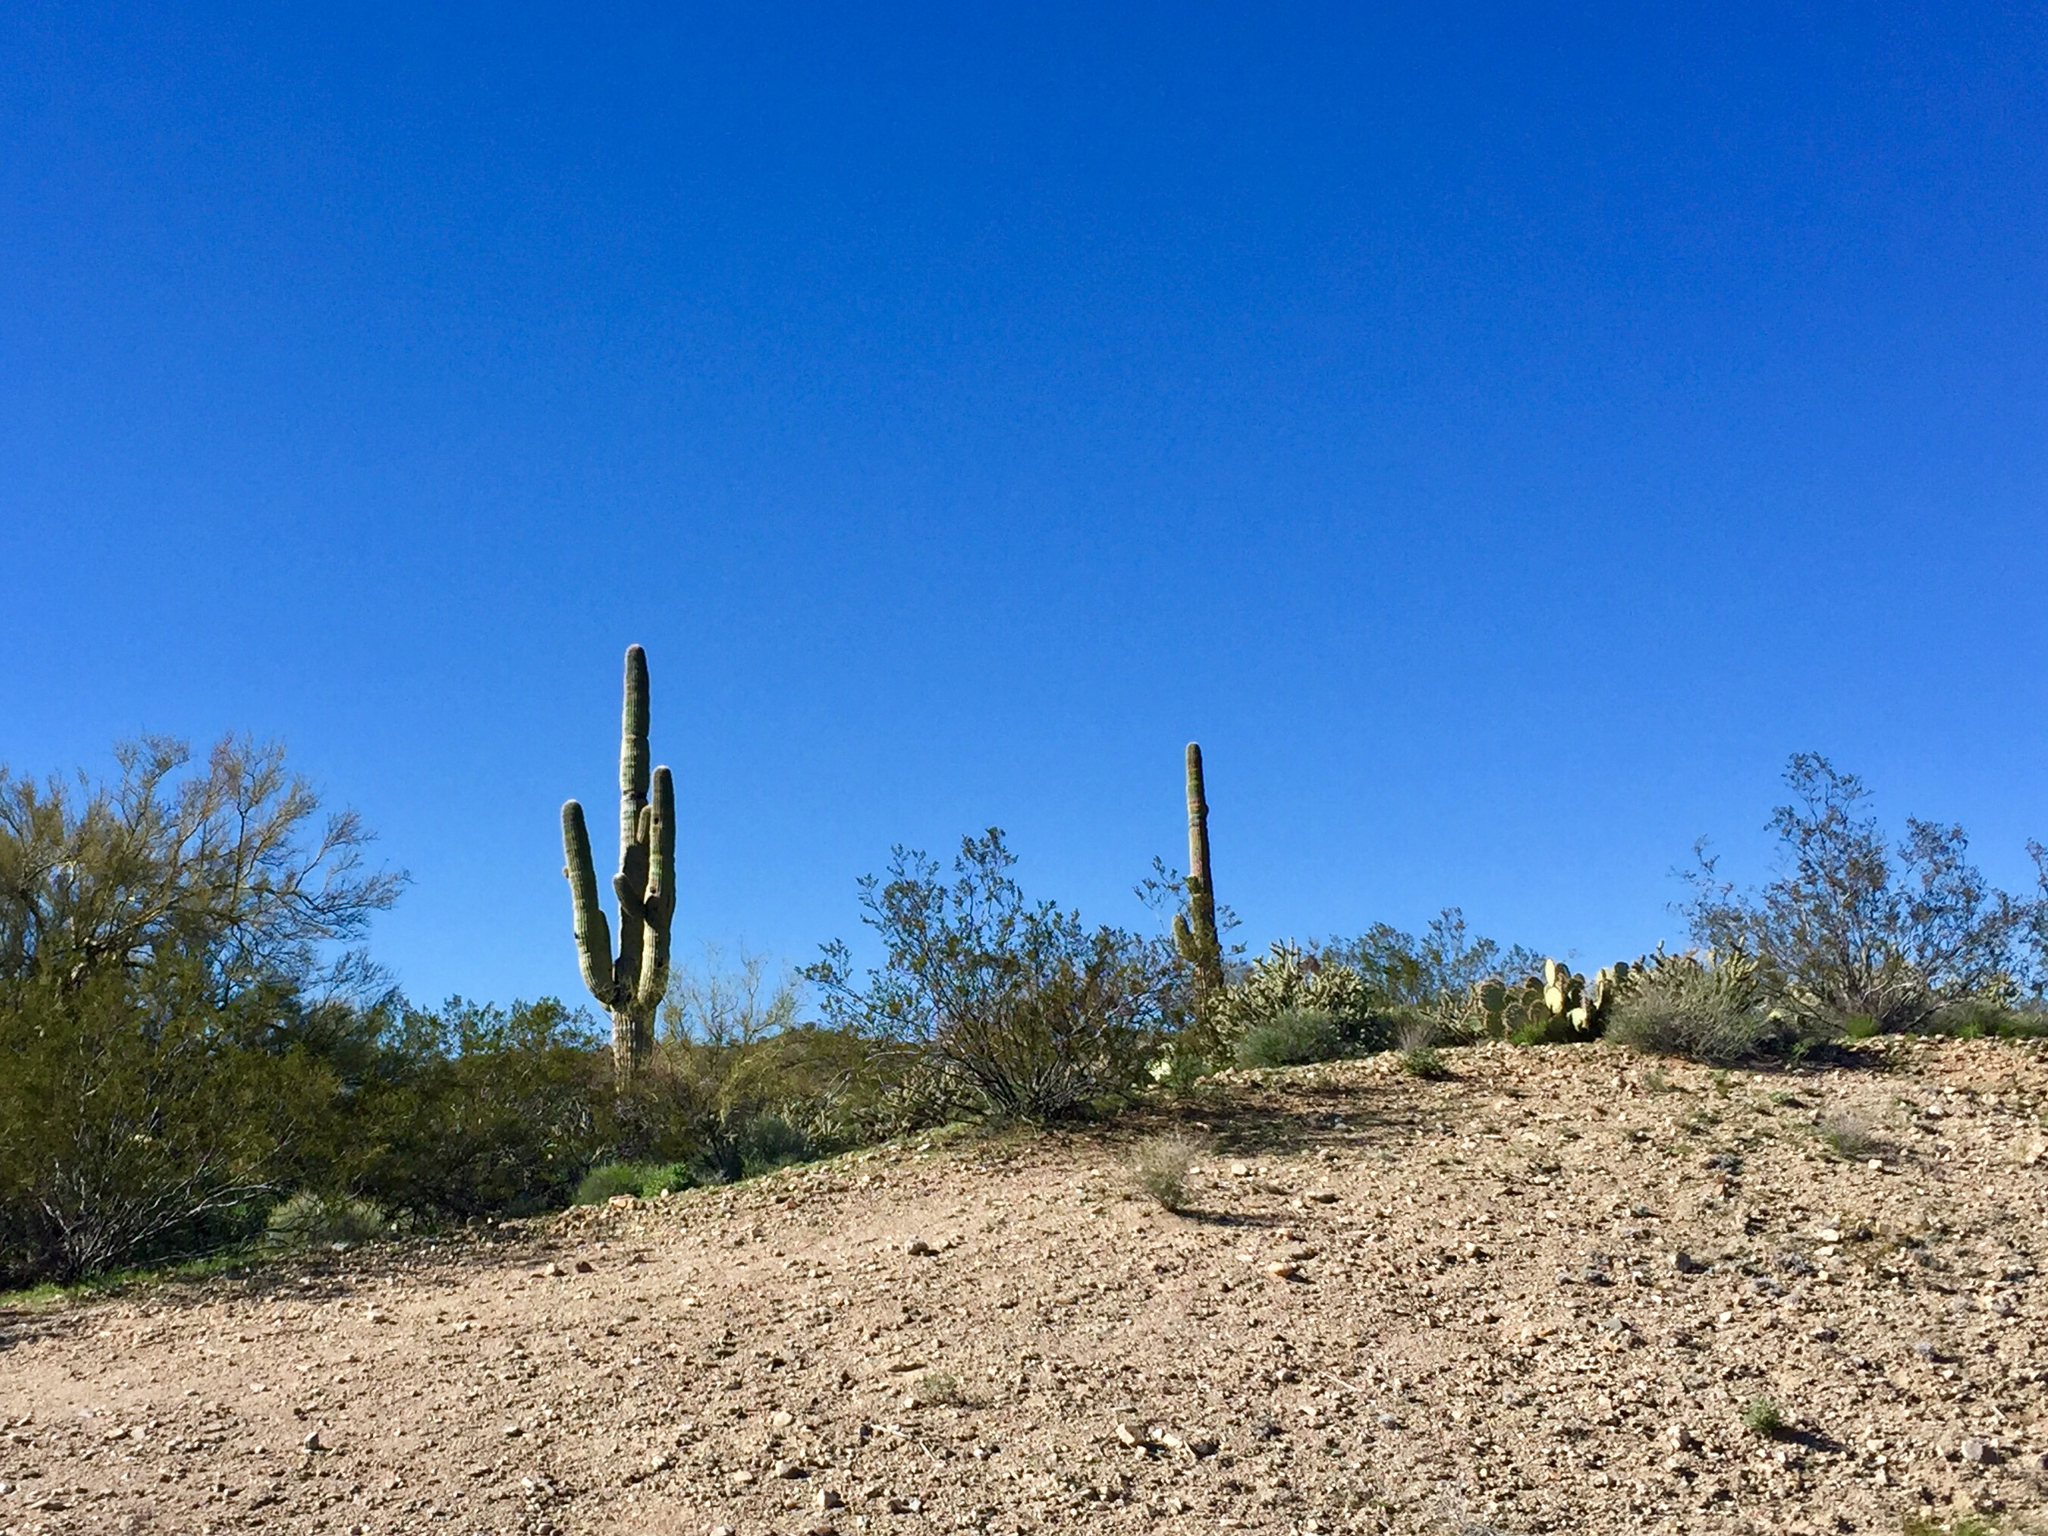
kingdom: Plantae
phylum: Tracheophyta
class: Magnoliopsida
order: Caryophyllales
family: Cactaceae
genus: Carnegiea
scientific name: Carnegiea gigantea
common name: Saguaro
